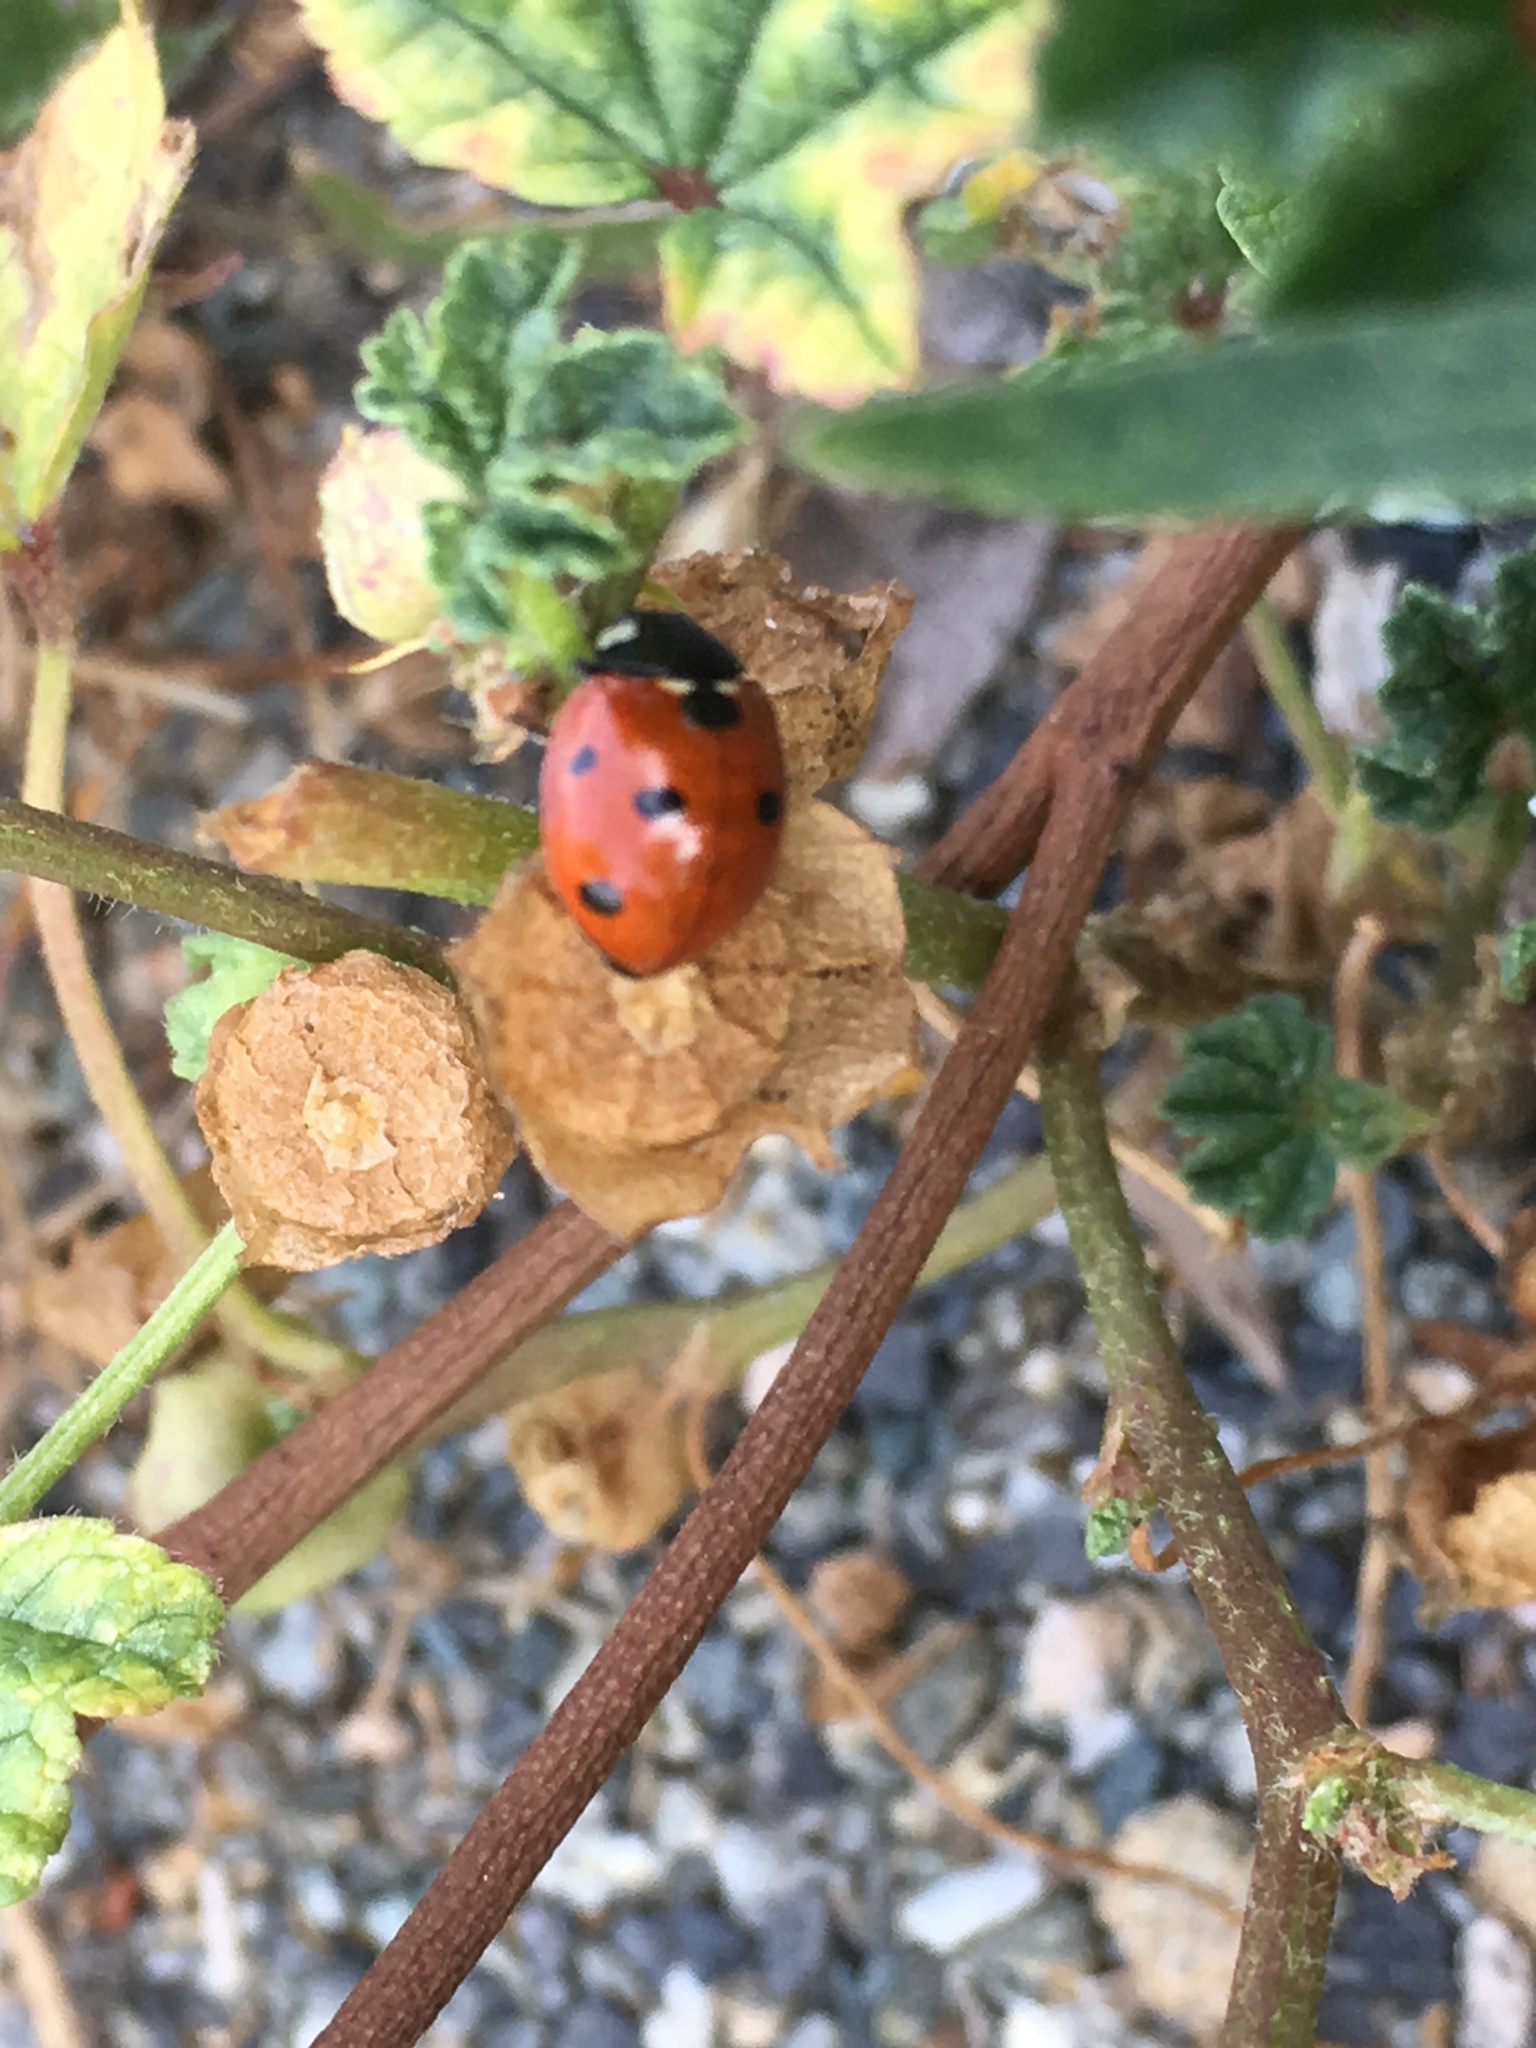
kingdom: Animalia
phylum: Arthropoda
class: Insecta
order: Coleoptera
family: Coccinellidae
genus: Coccinella
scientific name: Coccinella septempunctata
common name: Sevenspotted lady beetle
